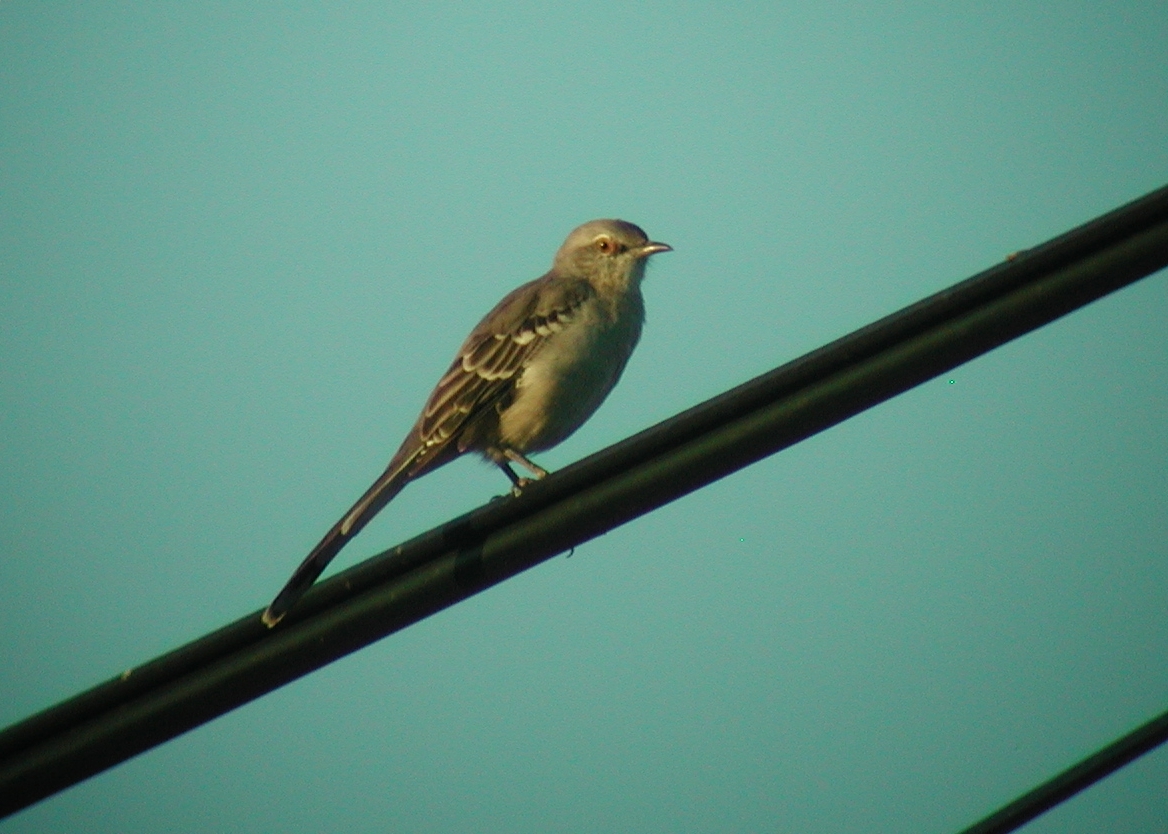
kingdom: Animalia
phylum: Chordata
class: Aves
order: Passeriformes
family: Mimidae
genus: Mimus
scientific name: Mimus polyglottos
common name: Northern mockingbird
